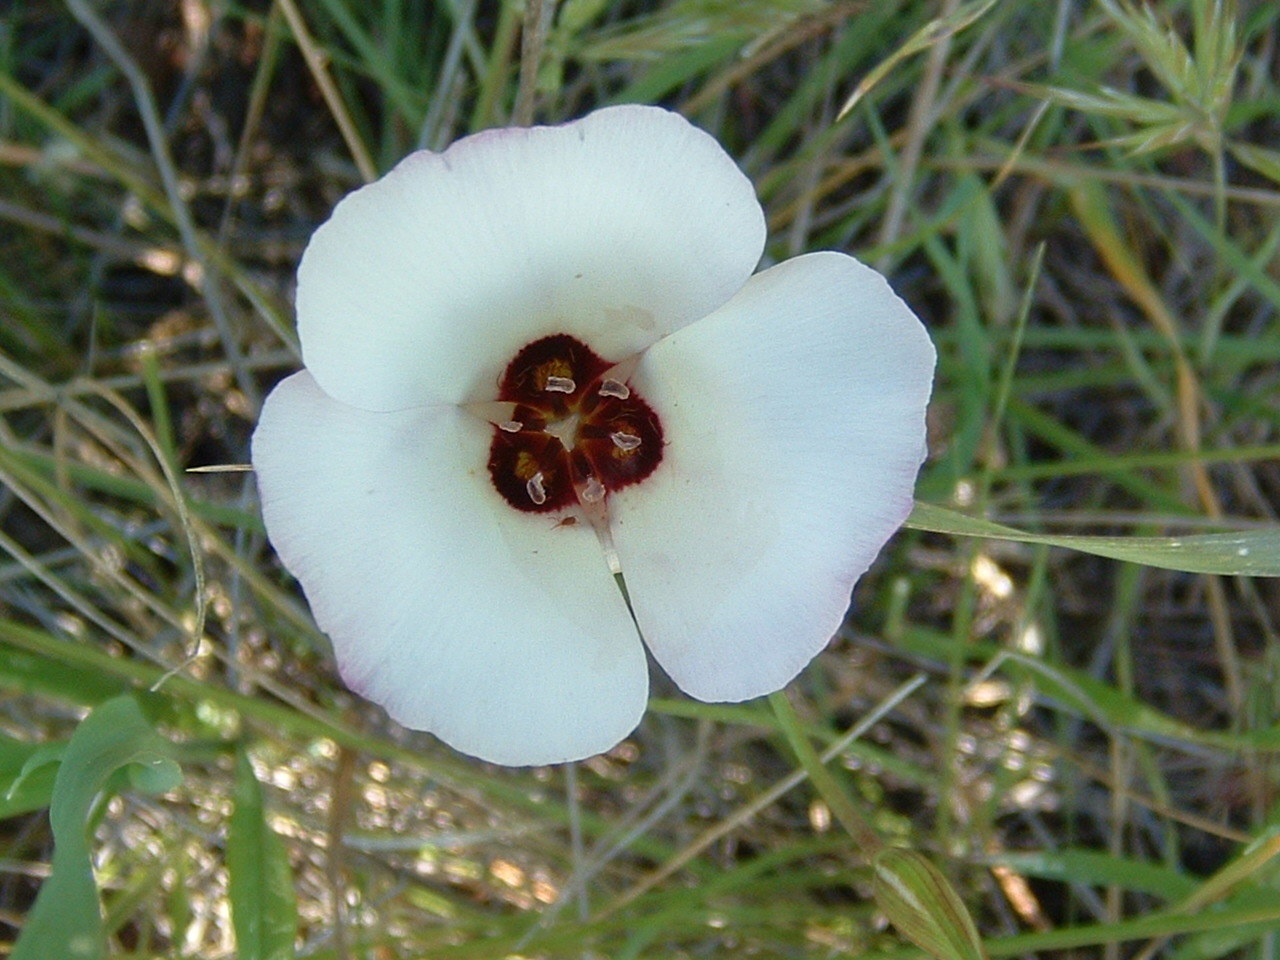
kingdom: Plantae
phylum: Tracheophyta
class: Liliopsida
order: Liliales
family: Liliaceae
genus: Calochortus
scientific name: Calochortus catalinae
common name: Catalina mariposa-lily
